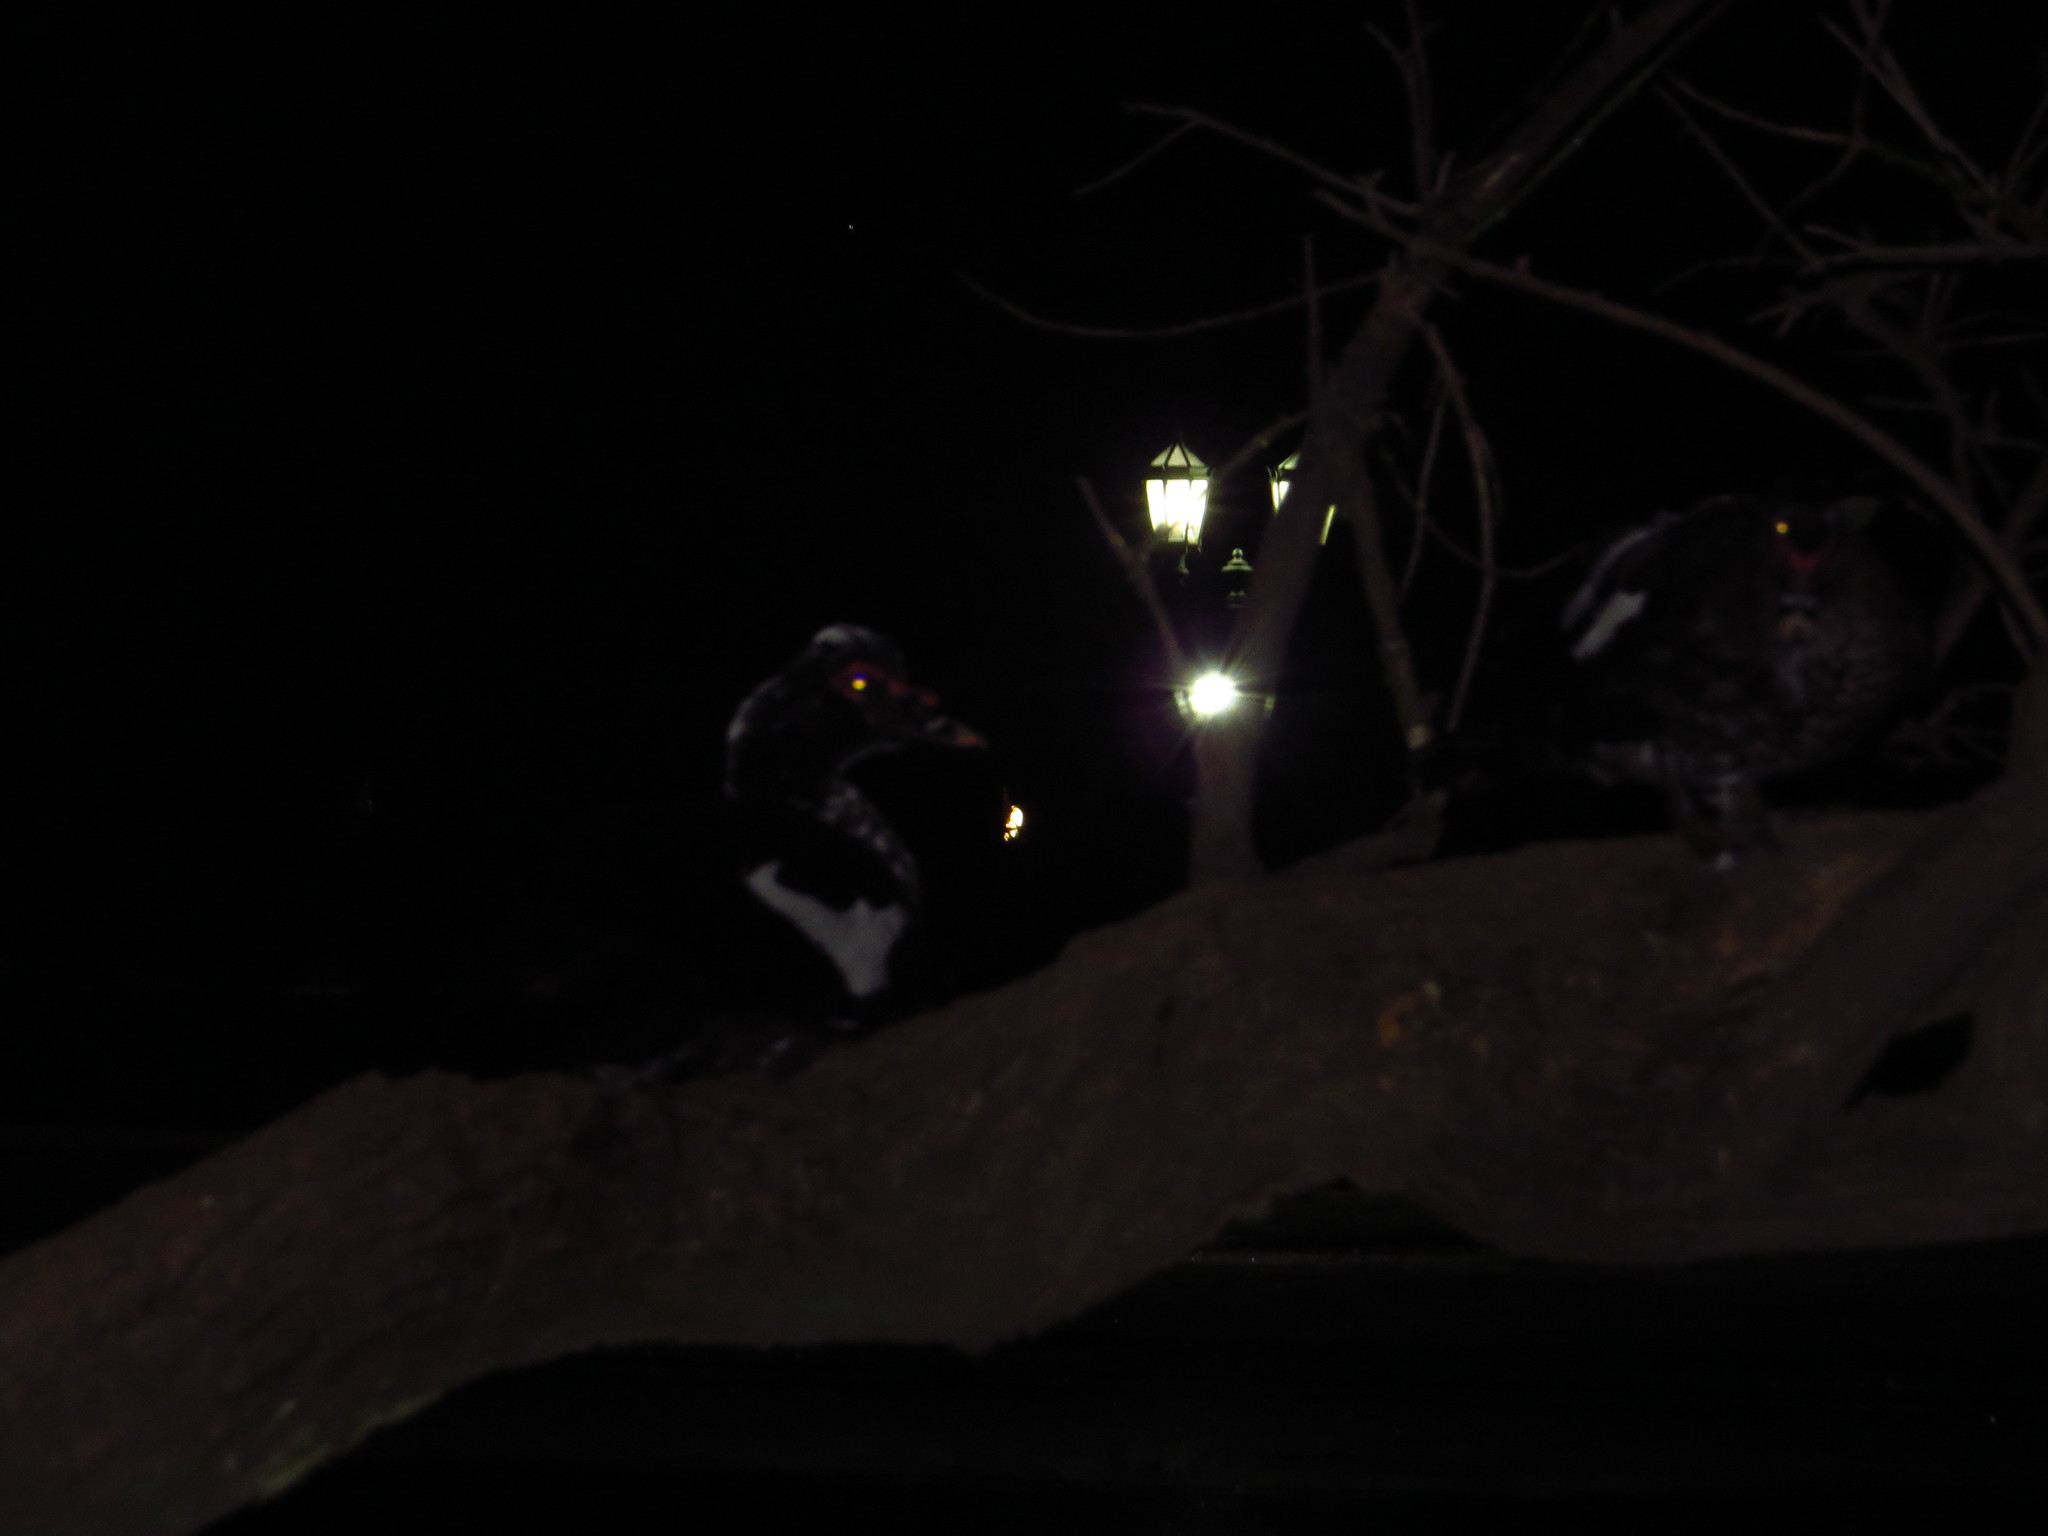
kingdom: Animalia
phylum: Chordata
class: Aves
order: Anseriformes
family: Anatidae
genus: Cairina
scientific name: Cairina moschata
